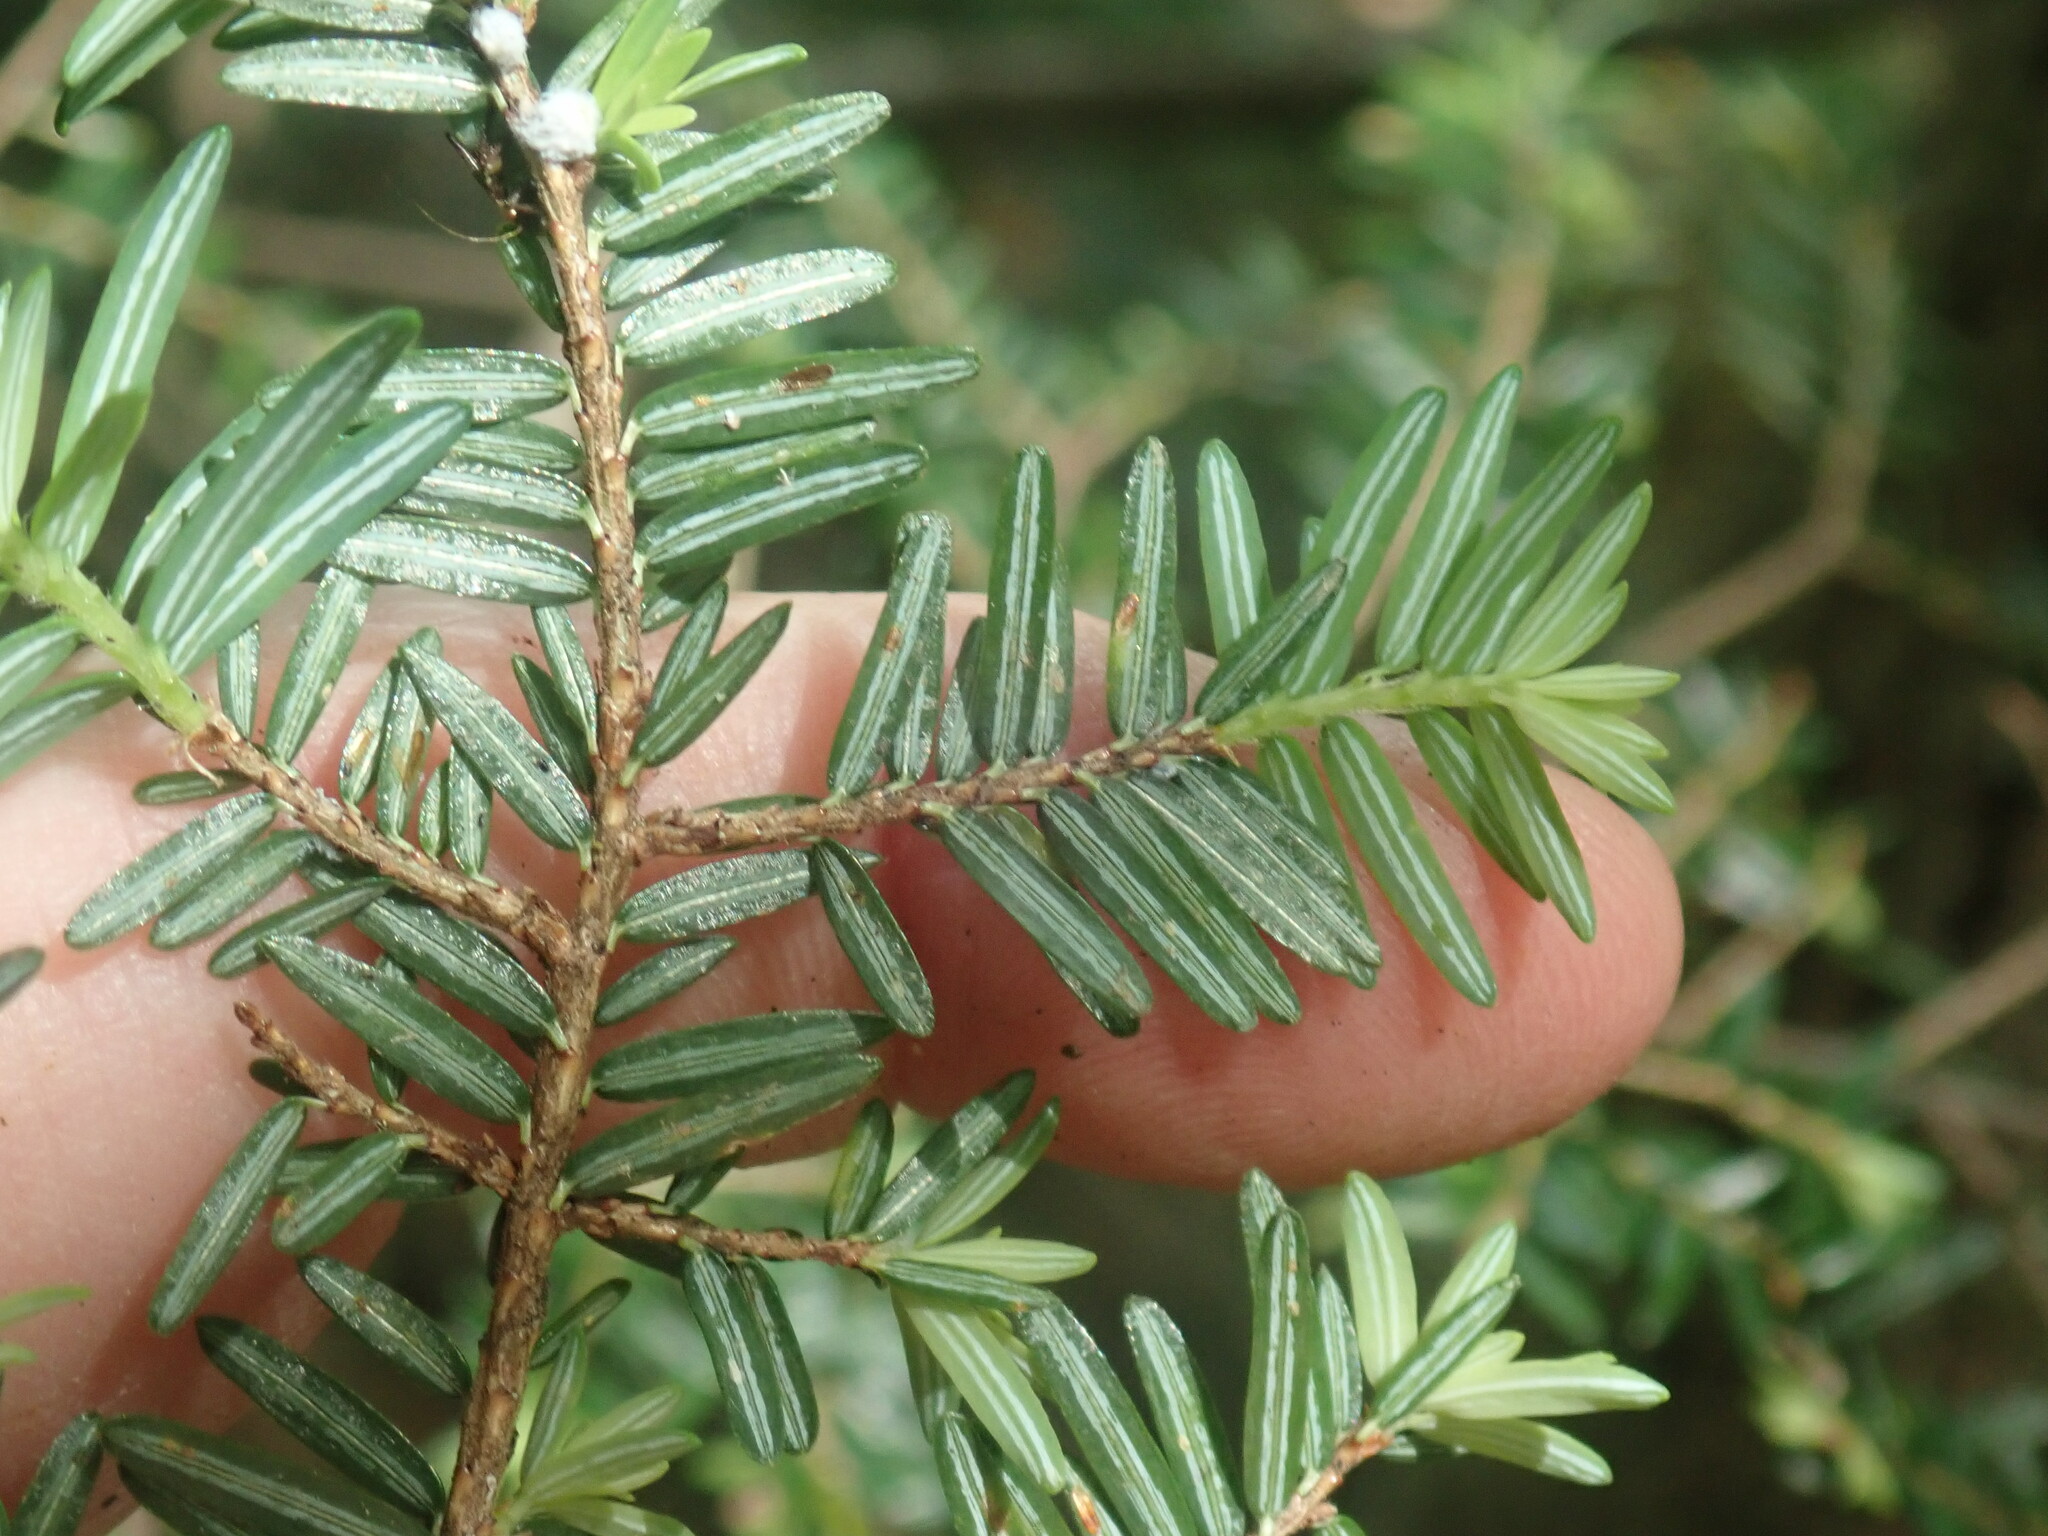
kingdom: Plantae
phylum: Tracheophyta
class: Pinopsida
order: Pinales
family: Pinaceae
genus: Tsuga
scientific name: Tsuga canadensis
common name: Eastern hemlock
